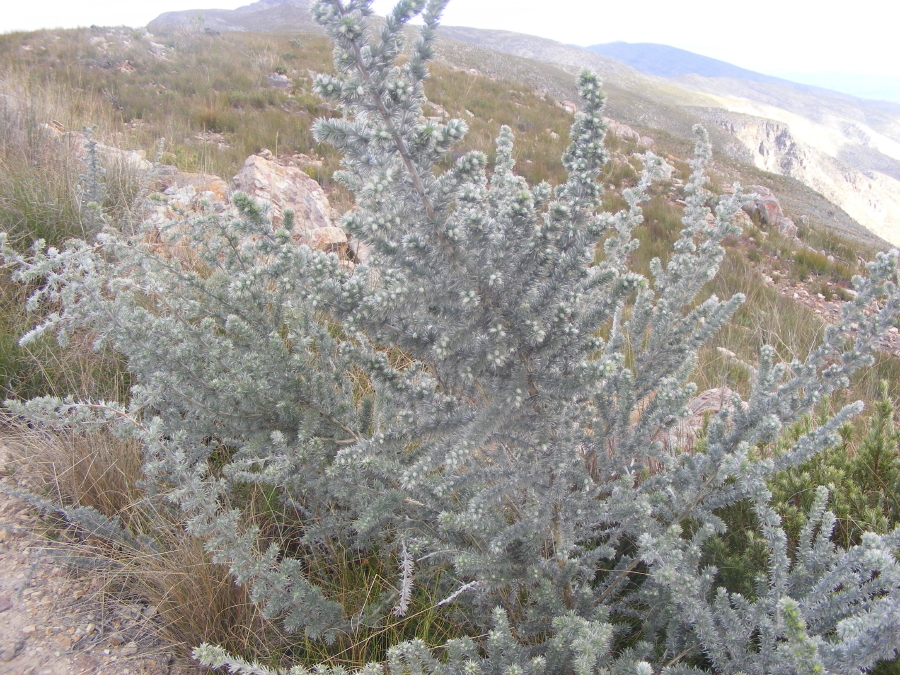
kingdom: Plantae
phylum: Tracheophyta
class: Magnoliopsida
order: Fabales
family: Fabaceae
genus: Aspalathus
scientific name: Aspalathus hystrix
